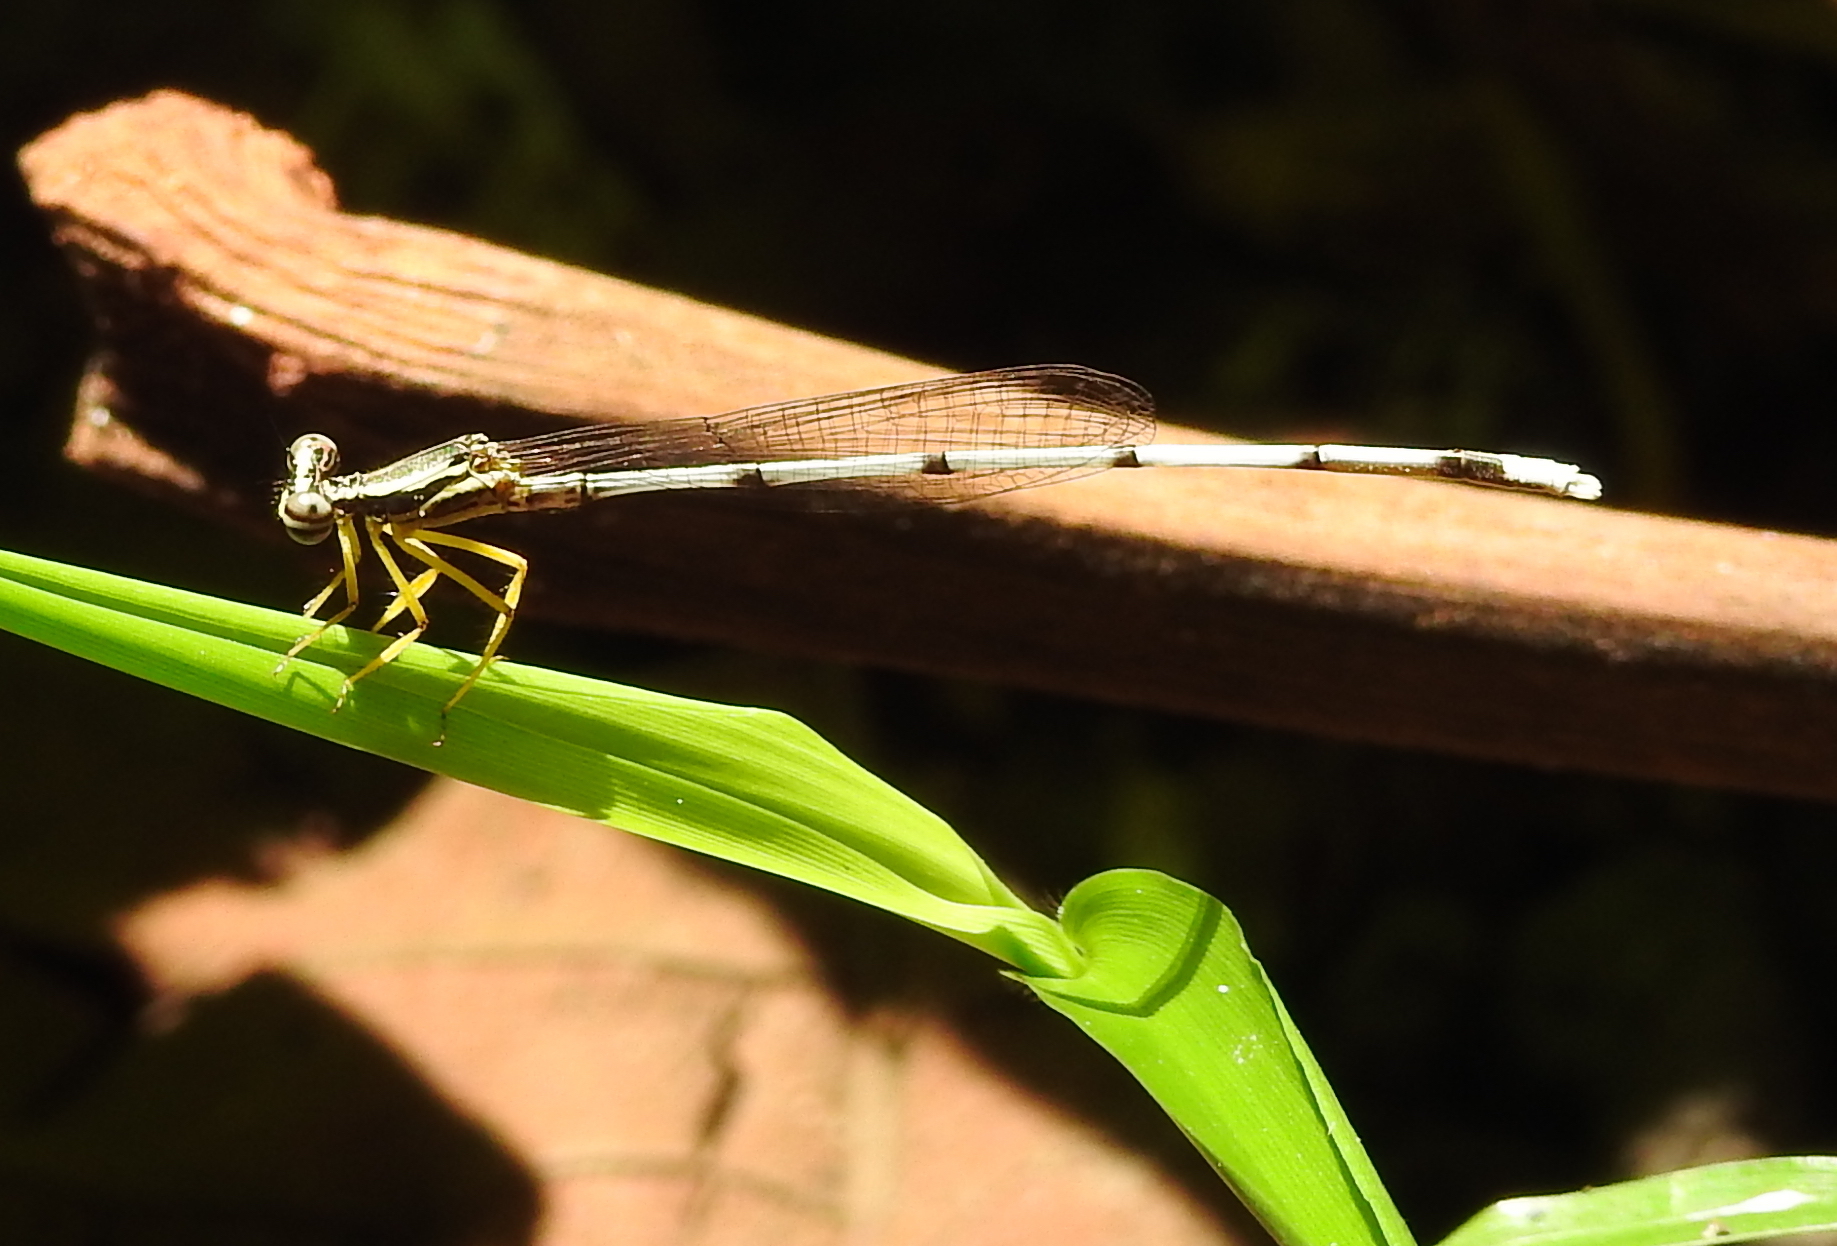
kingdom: Animalia
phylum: Arthropoda
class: Insecta
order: Odonata
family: Platycnemididae
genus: Copera
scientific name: Copera marginipes
